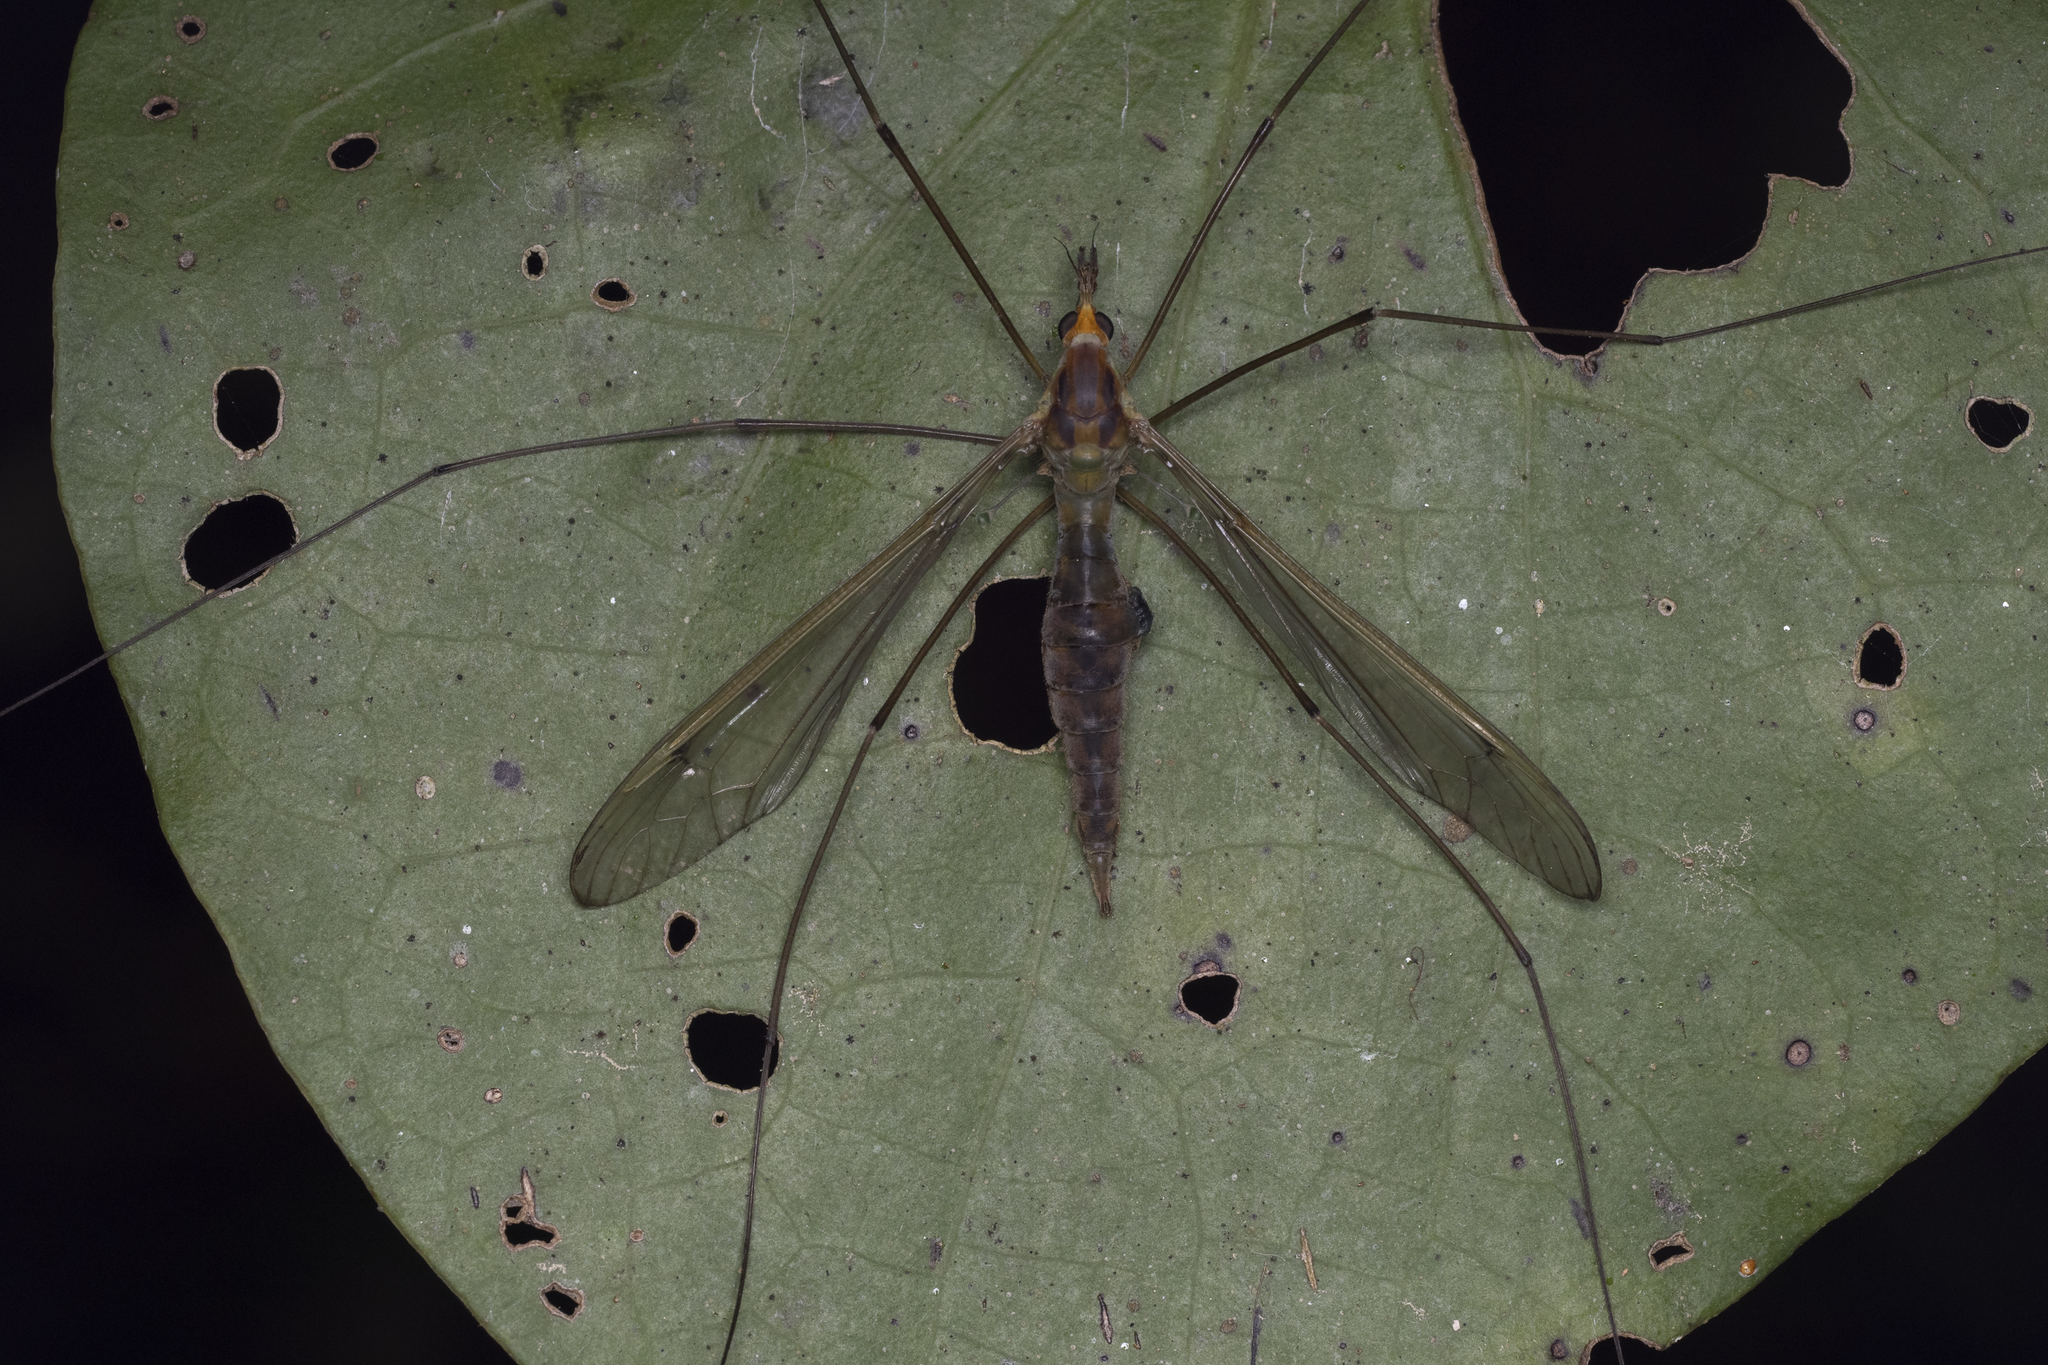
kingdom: Animalia
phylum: Arthropoda
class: Insecta
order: Diptera
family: Tipulidae
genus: Leptotarsus
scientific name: Leptotarsus albistigma
